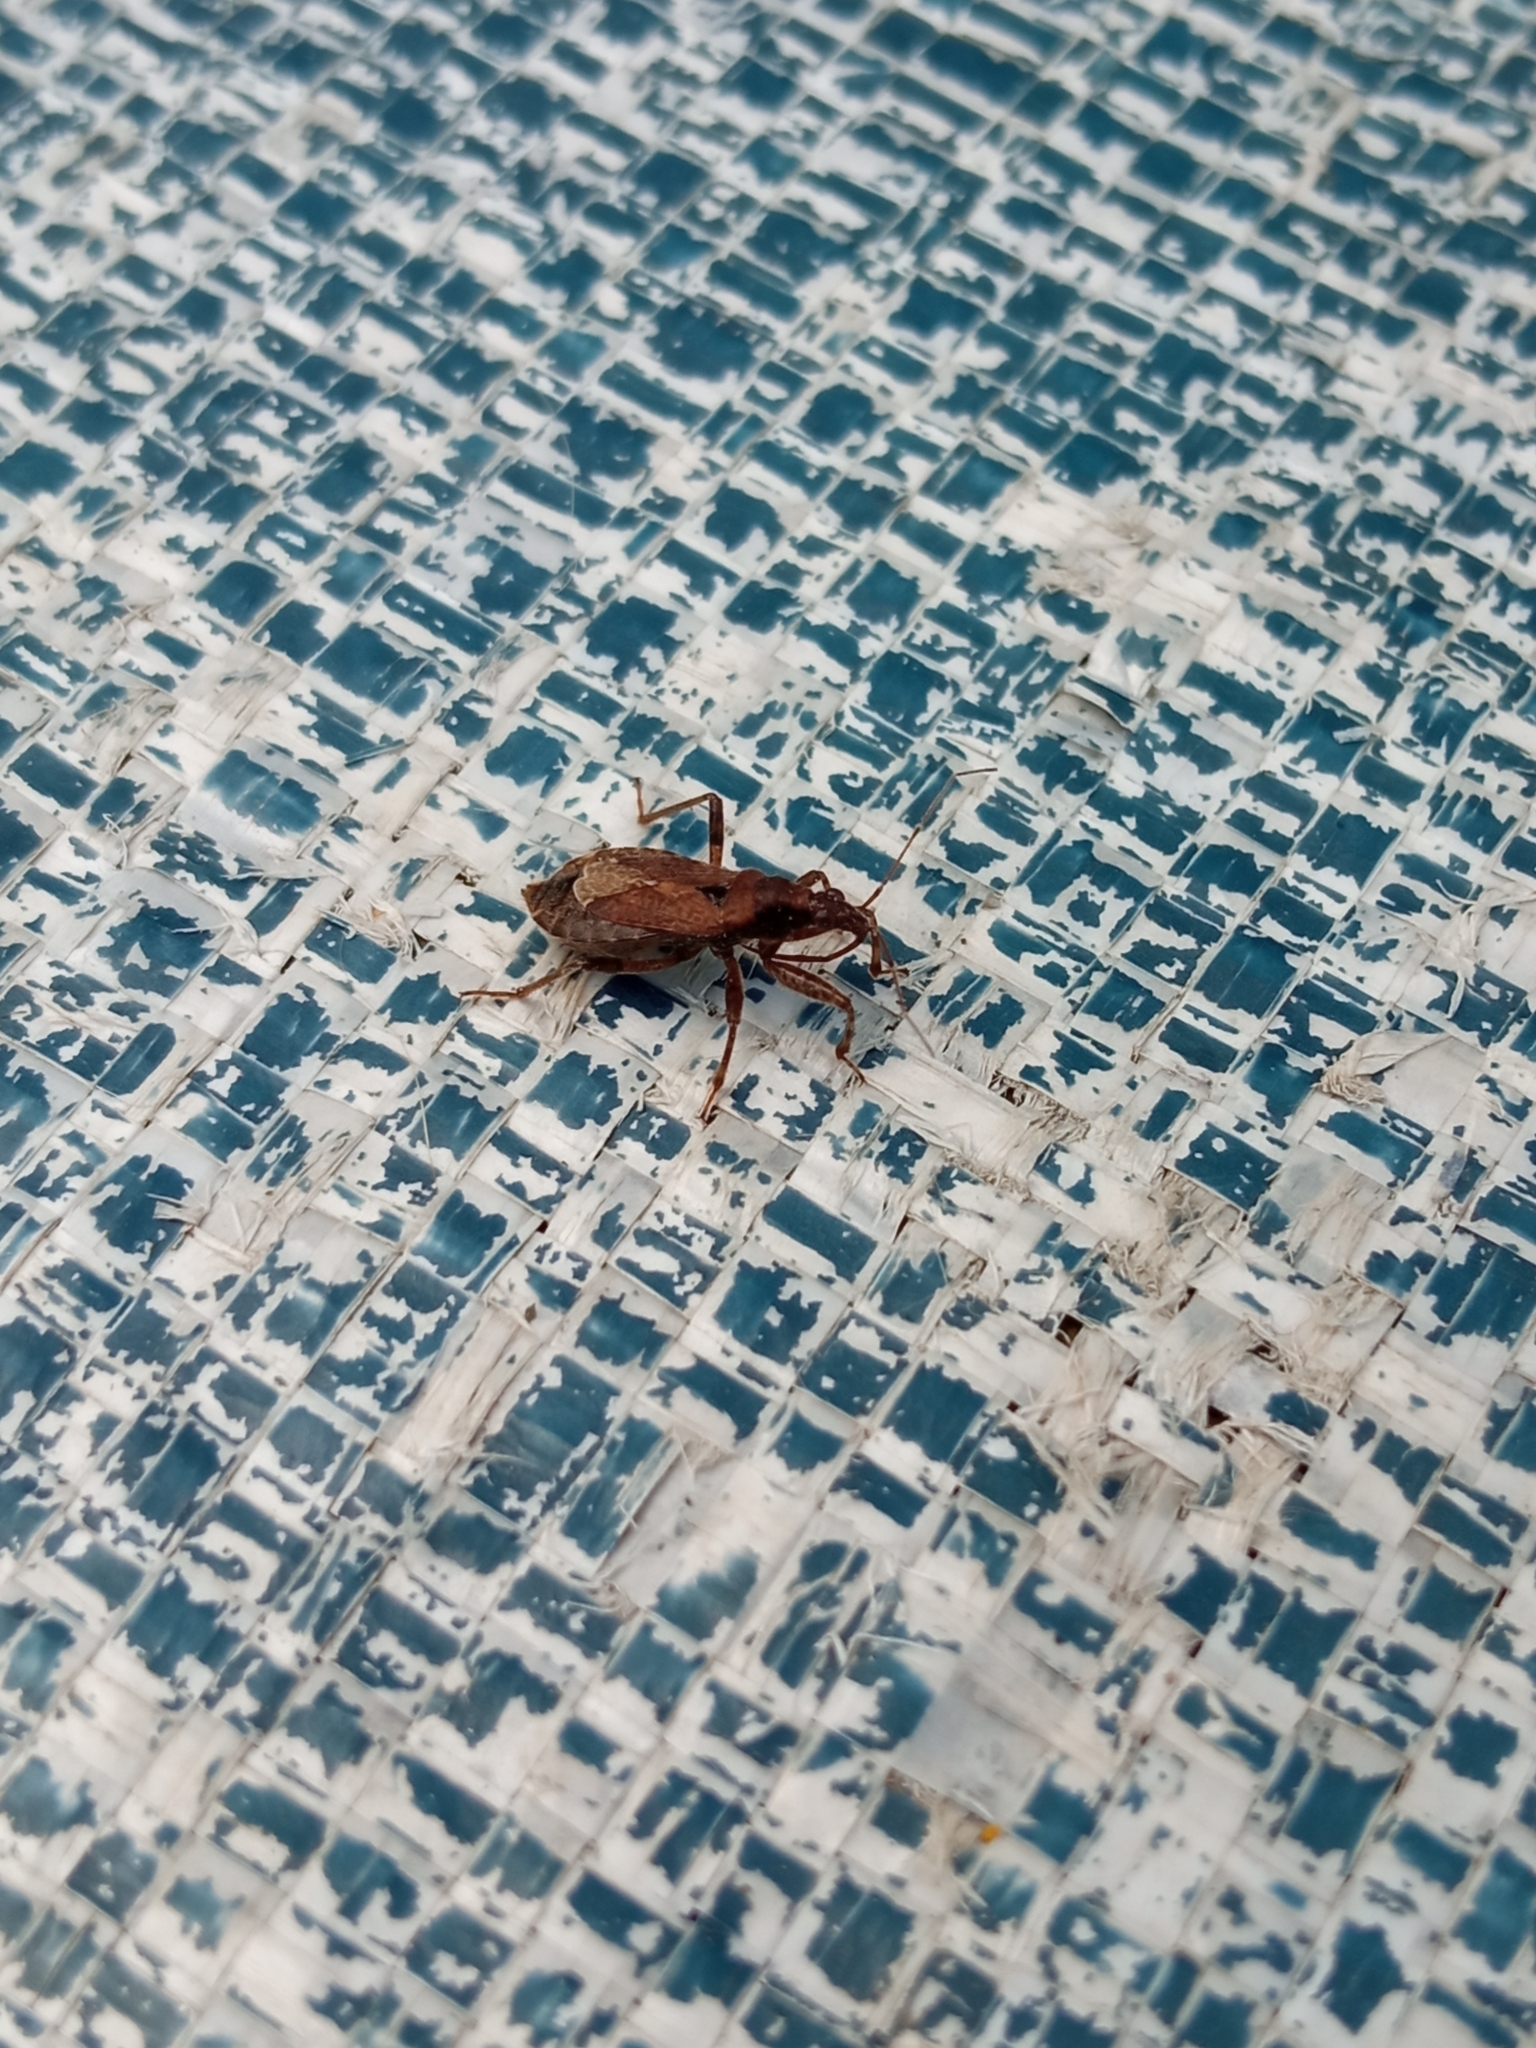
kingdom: Animalia
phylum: Arthropoda
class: Insecta
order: Hemiptera
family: Nabidae
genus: Himacerus
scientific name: Himacerus mirmicoides
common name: Ant damsel bug
